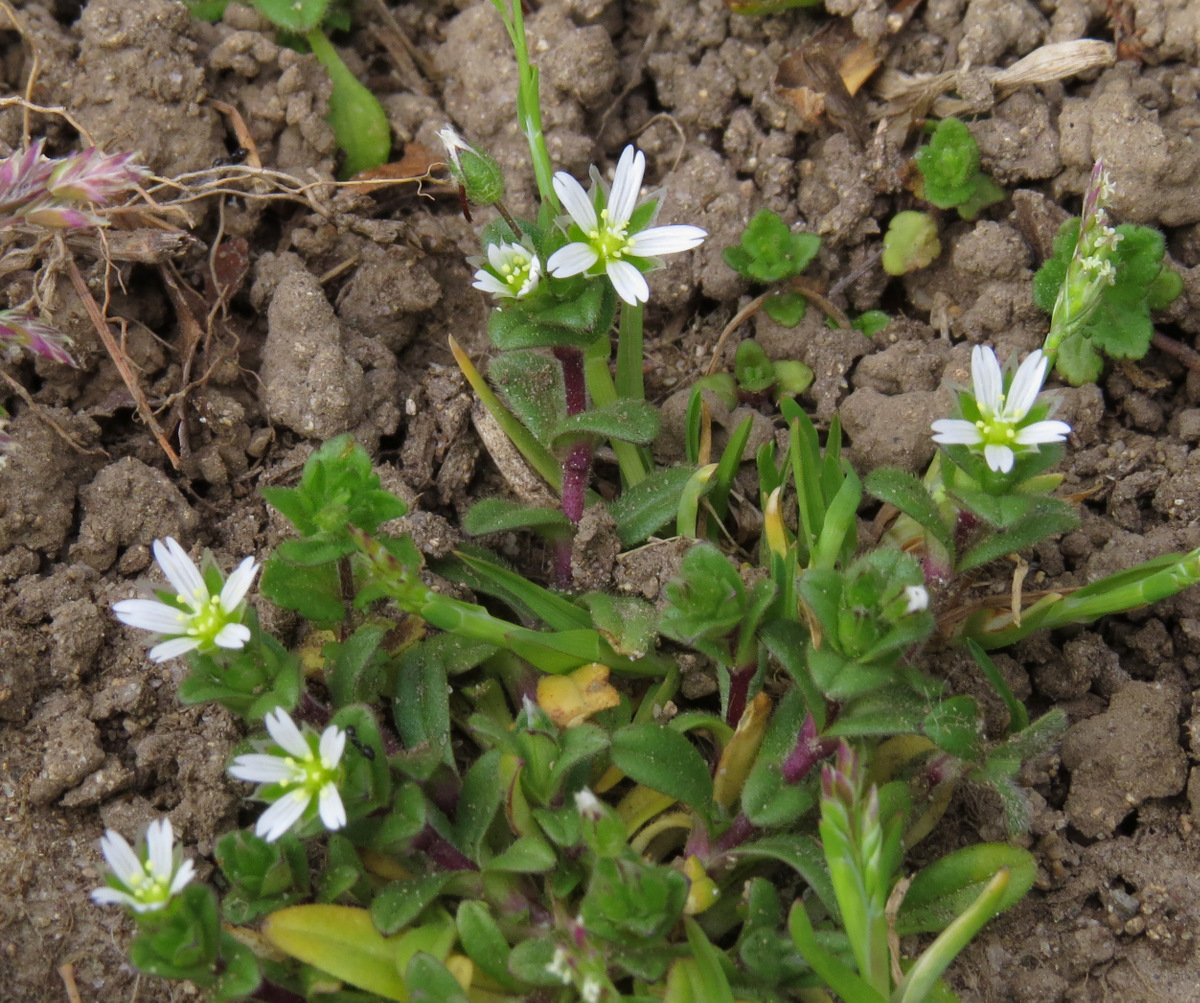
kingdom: Plantae
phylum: Tracheophyta
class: Magnoliopsida
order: Caryophyllales
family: Caryophyllaceae
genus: Cerastium
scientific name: Cerastium fontanum
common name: Common mouse-ear
